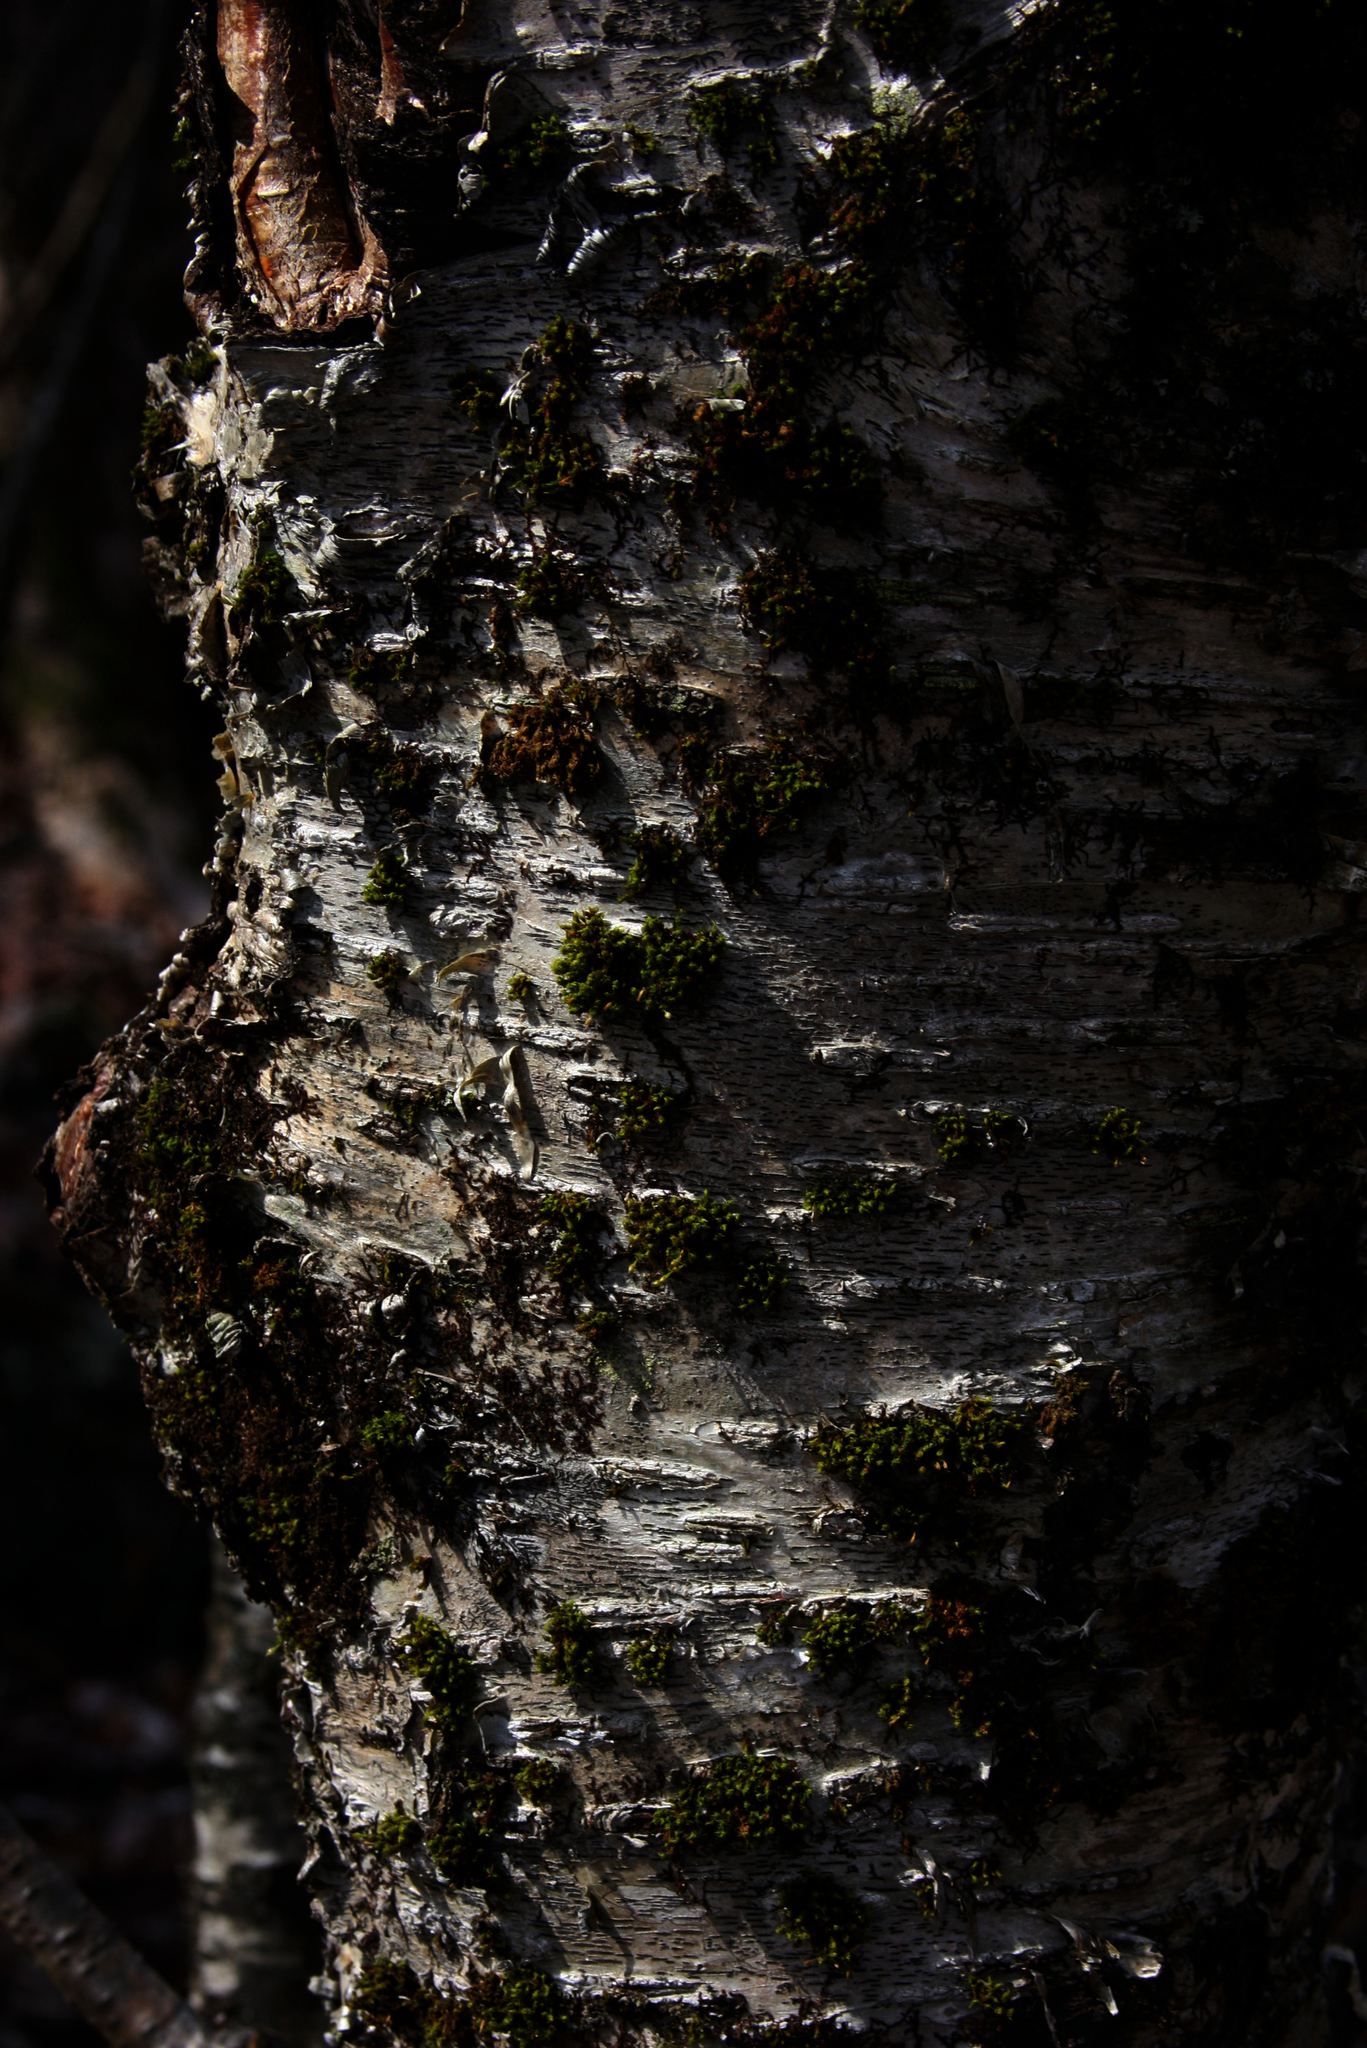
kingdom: Plantae
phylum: Tracheophyta
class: Magnoliopsida
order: Fagales
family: Betulaceae
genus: Betula
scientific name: Betula alleghaniensis
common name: Yellow birch
